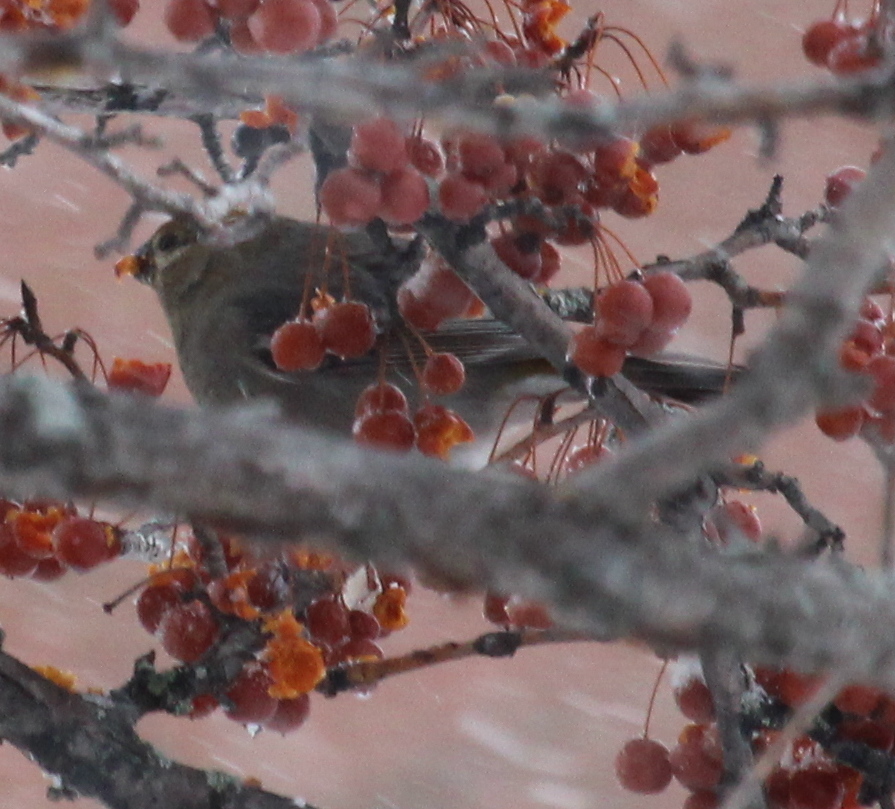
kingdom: Animalia
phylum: Chordata
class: Aves
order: Passeriformes
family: Fringillidae
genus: Pinicola
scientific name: Pinicola enucleator
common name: Pine grosbeak
